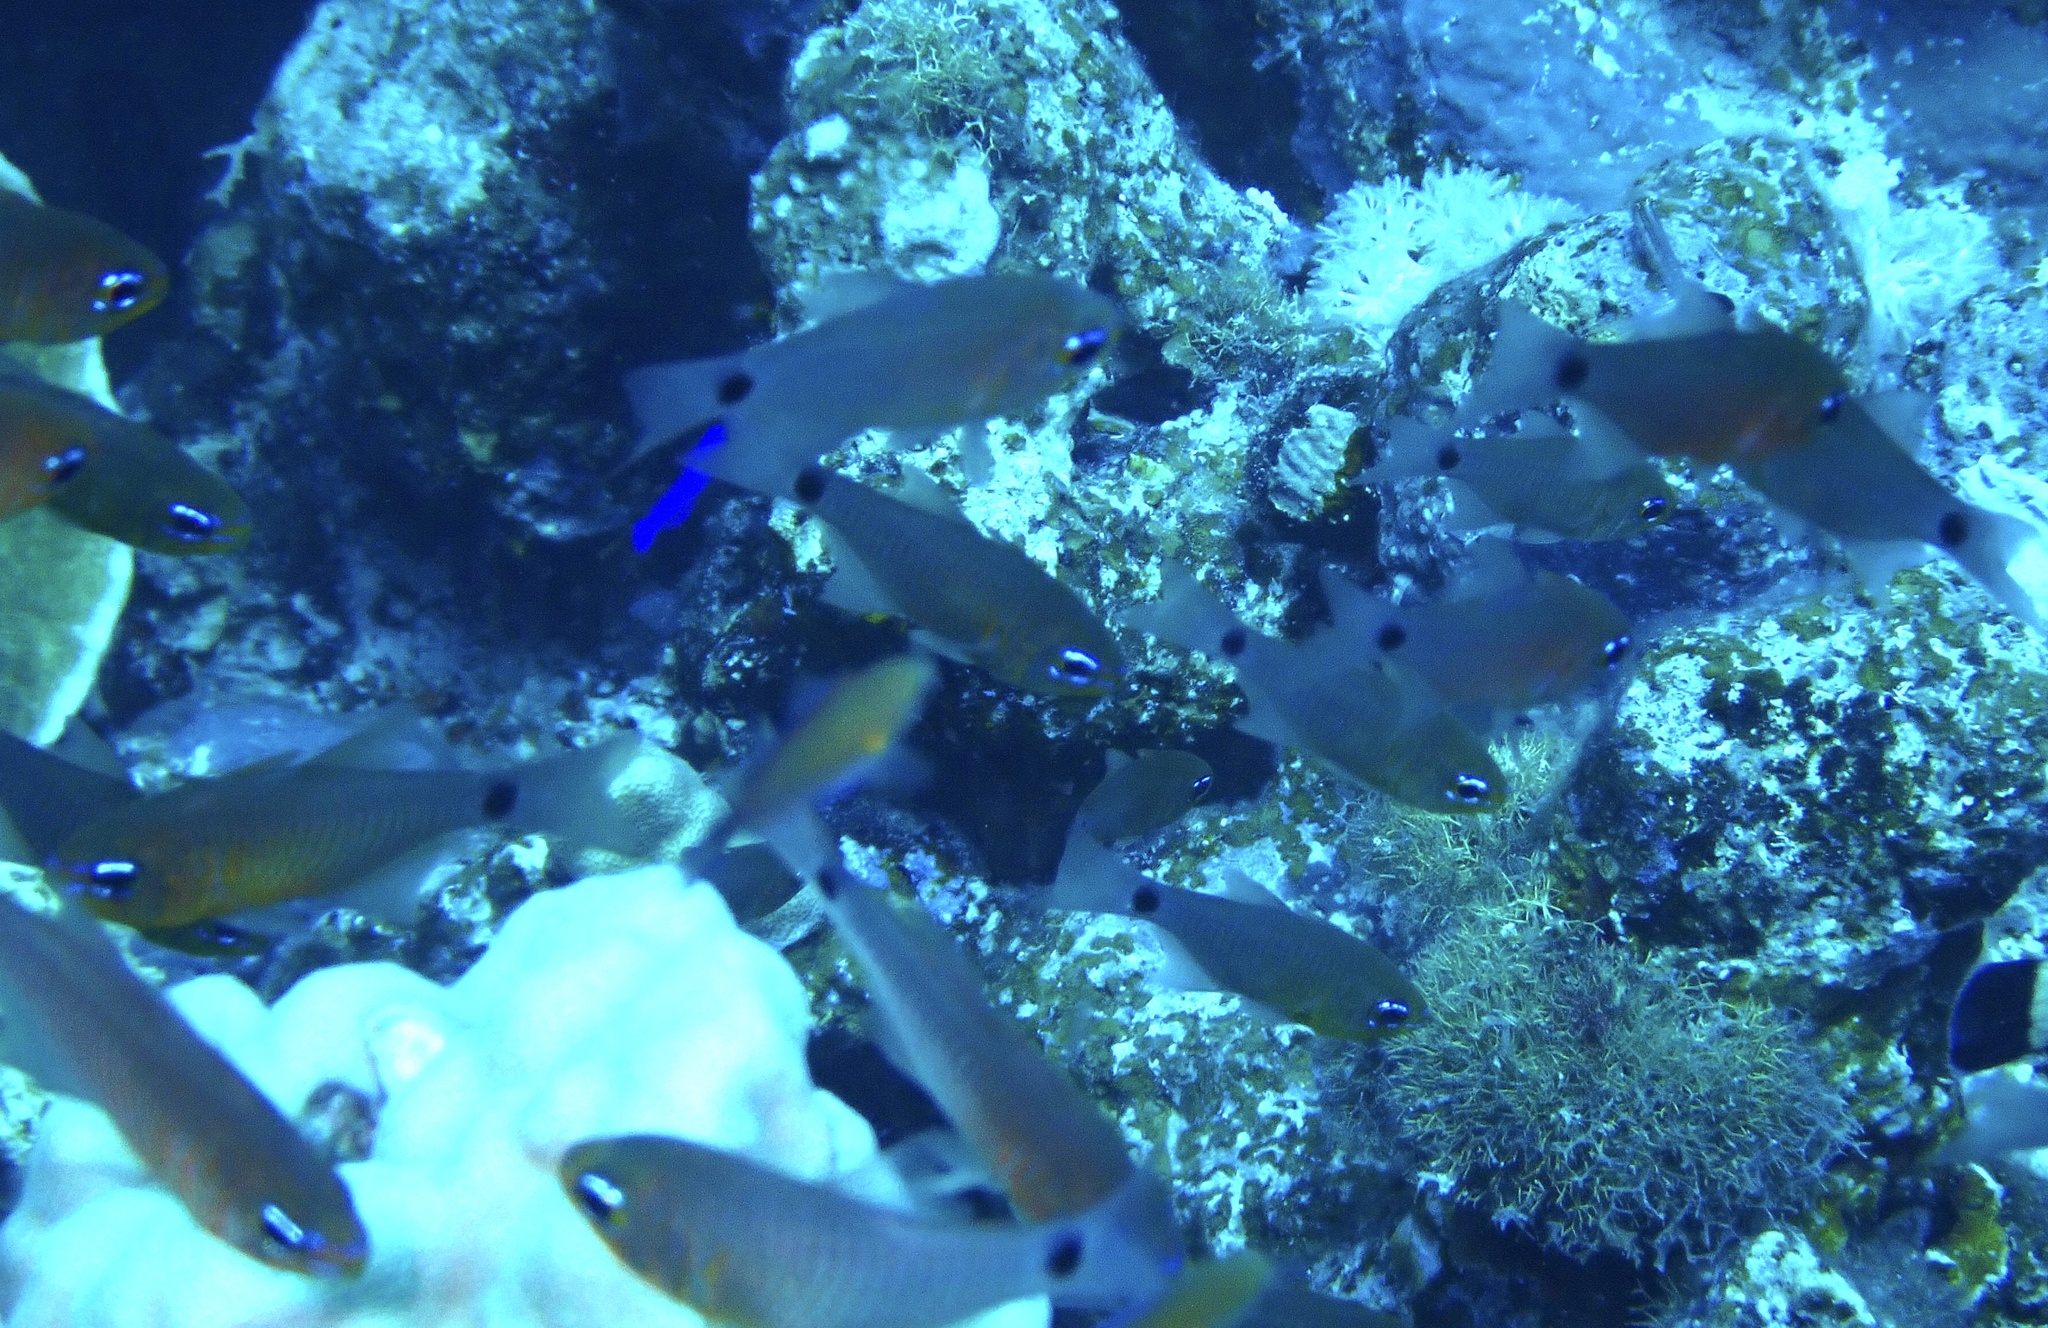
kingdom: Animalia
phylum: Chordata
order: Perciformes
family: Apogonidae
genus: Taeniamia
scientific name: Taeniamia fucata
